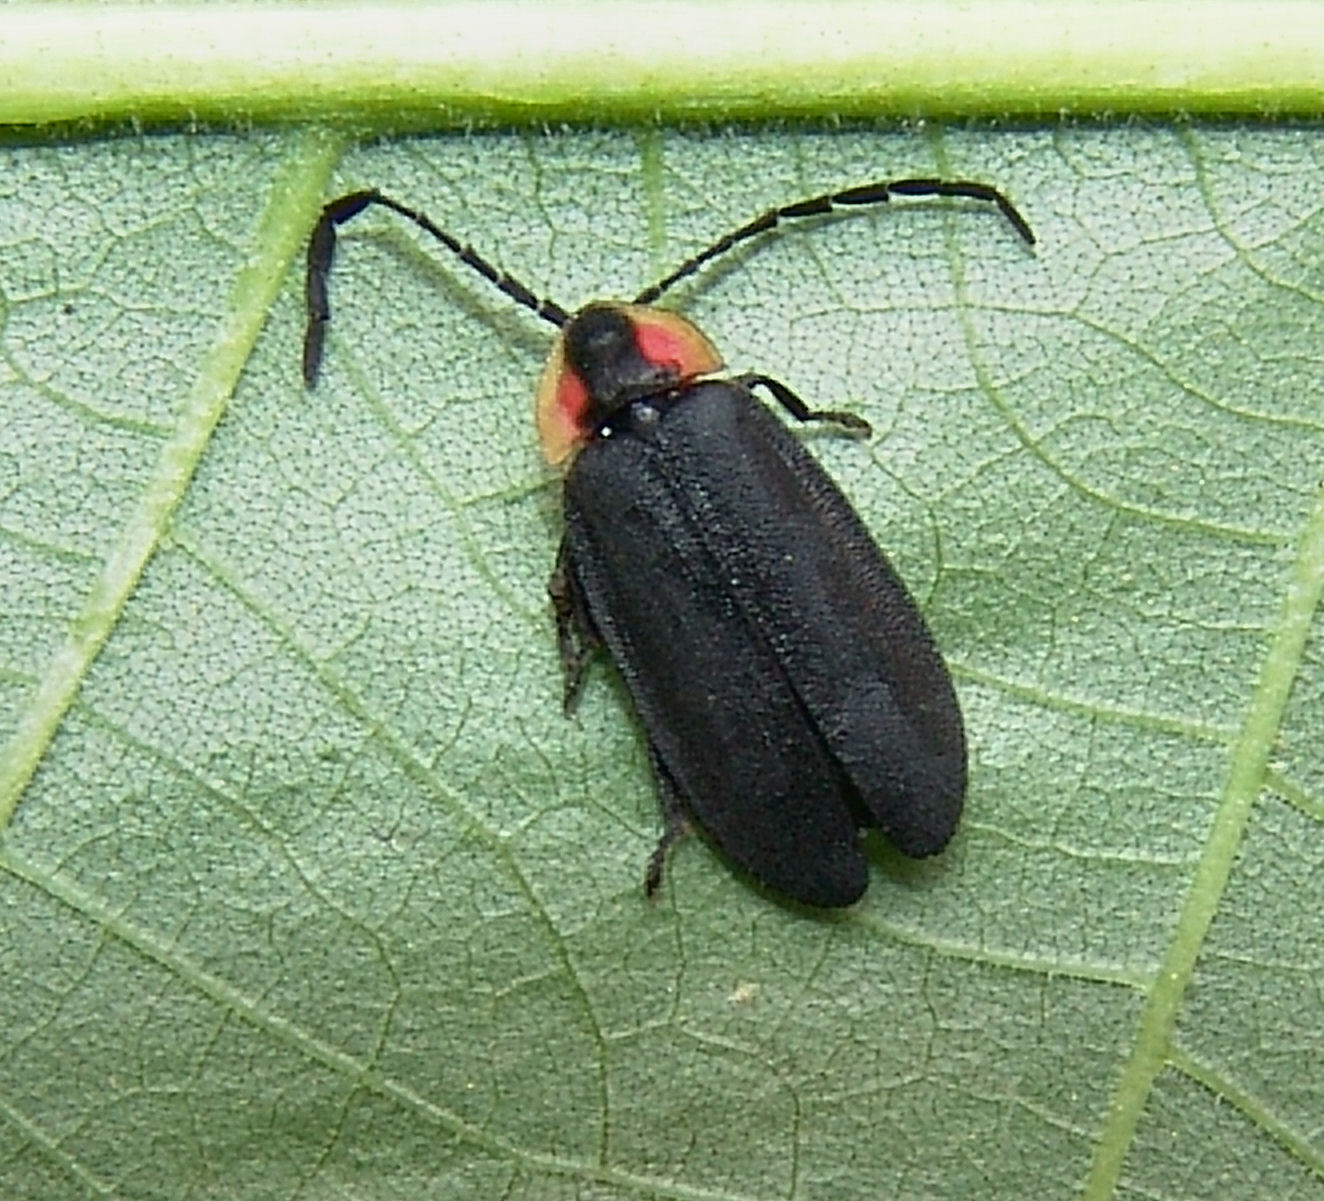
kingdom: Animalia
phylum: Arthropoda
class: Insecta
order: Coleoptera
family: Lampyridae
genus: Lucidota
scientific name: Lucidota atra
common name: Black firefly
